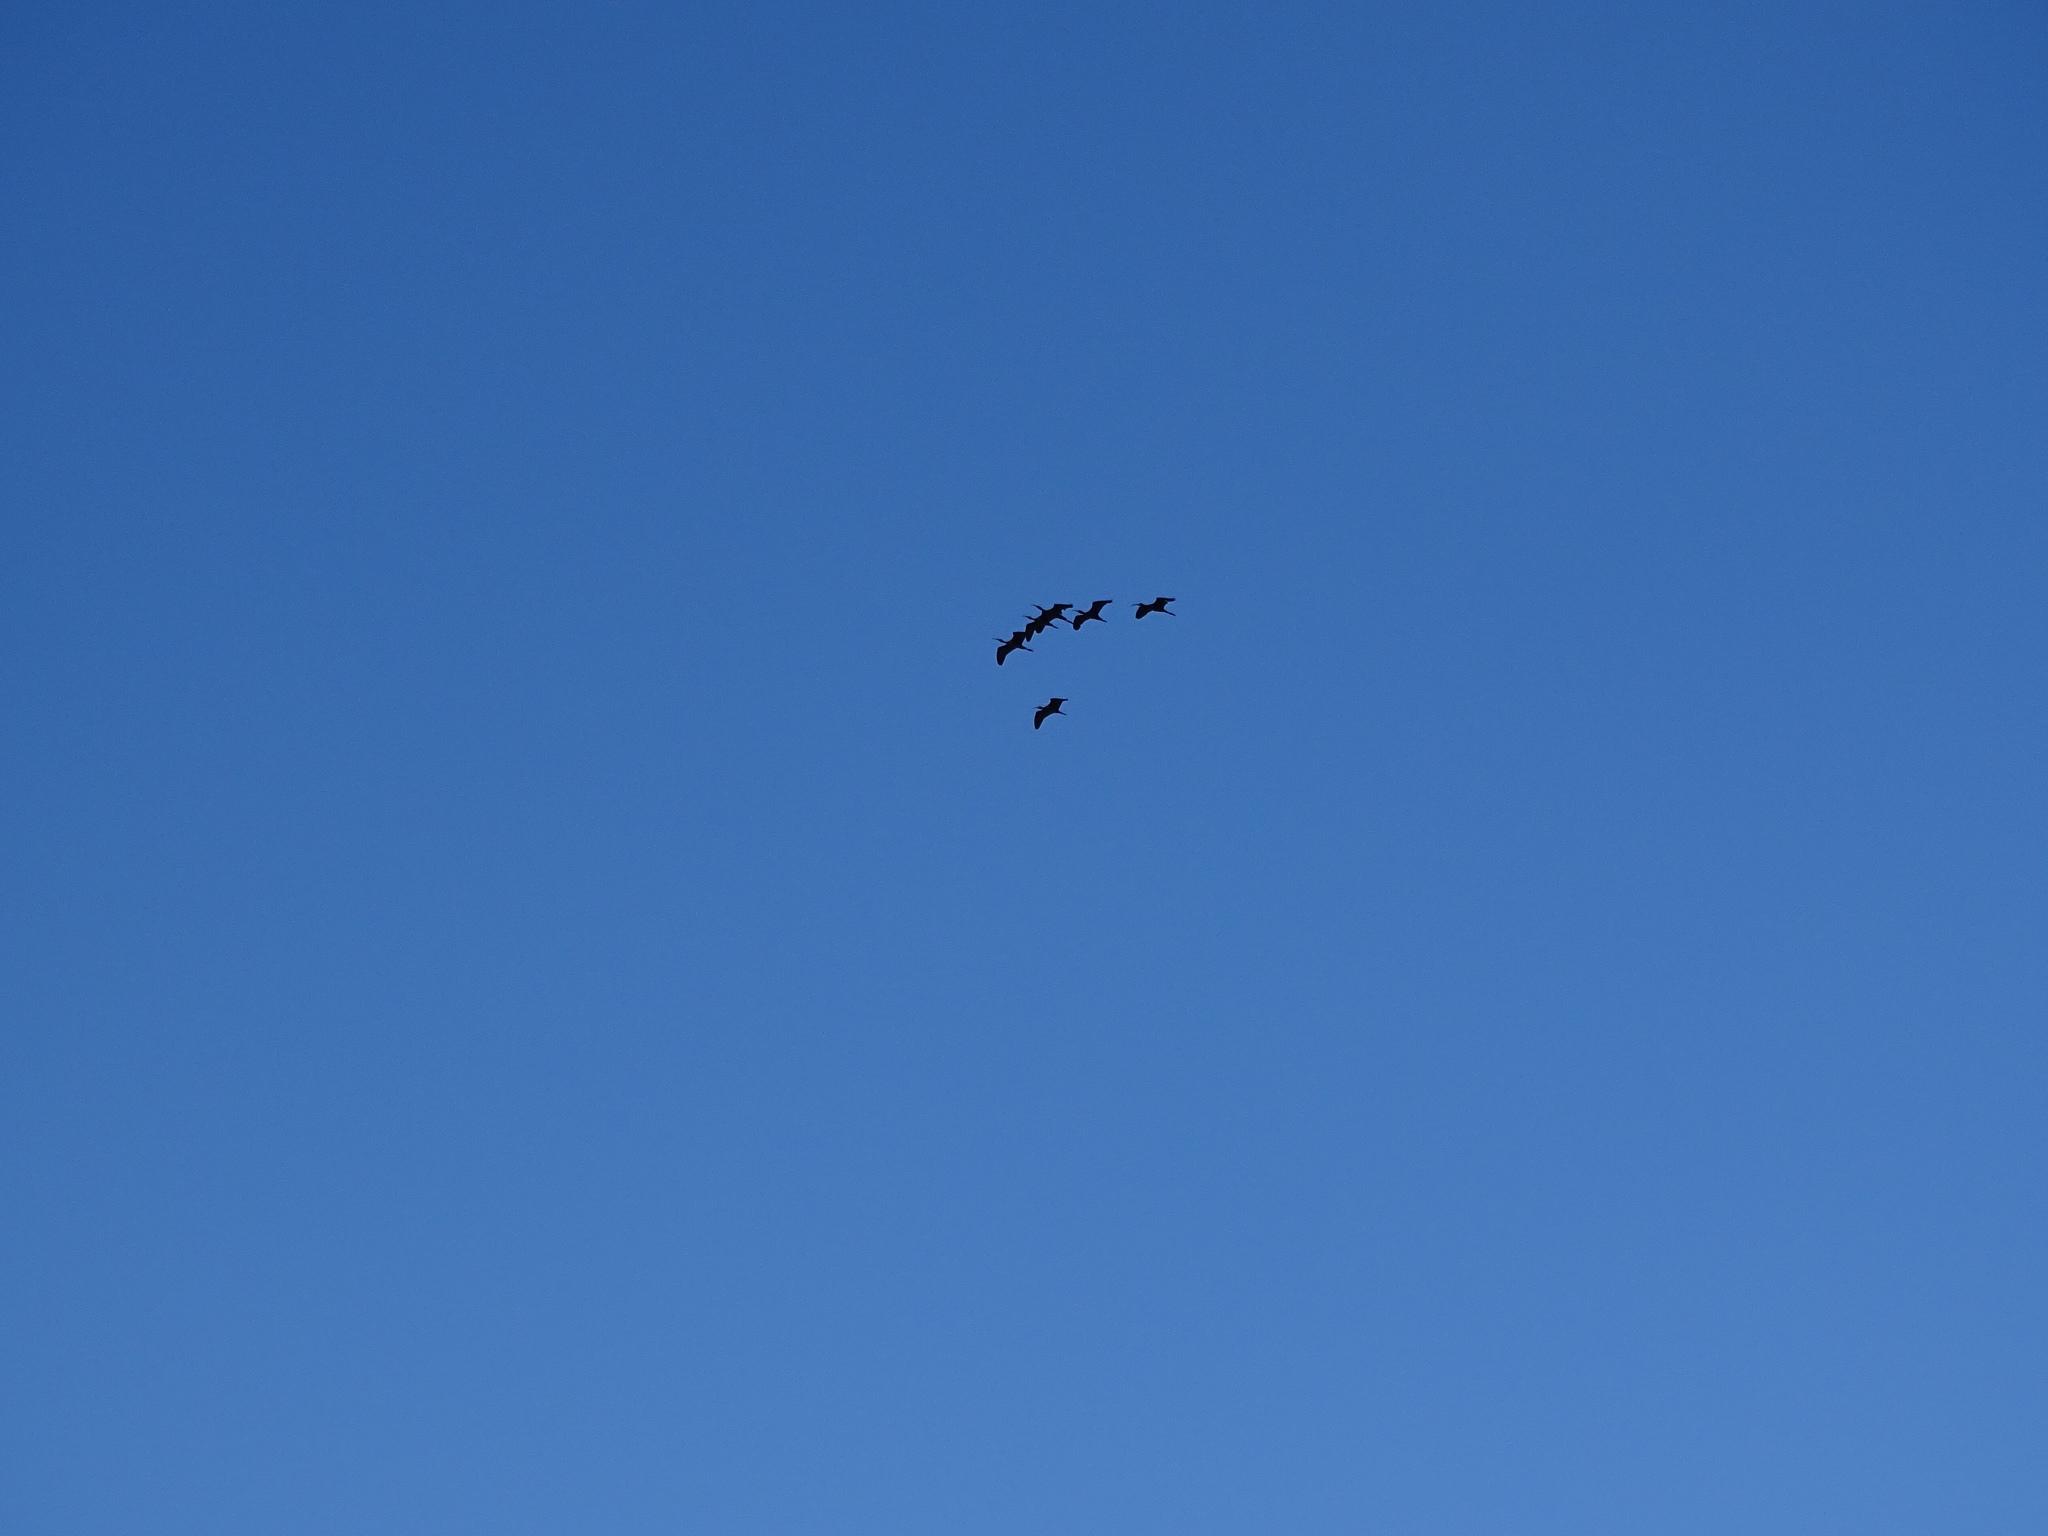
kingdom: Animalia
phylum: Chordata
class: Aves
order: Pelecaniformes
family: Threskiornithidae
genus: Plegadis
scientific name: Plegadis chihi
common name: White-faced ibis
